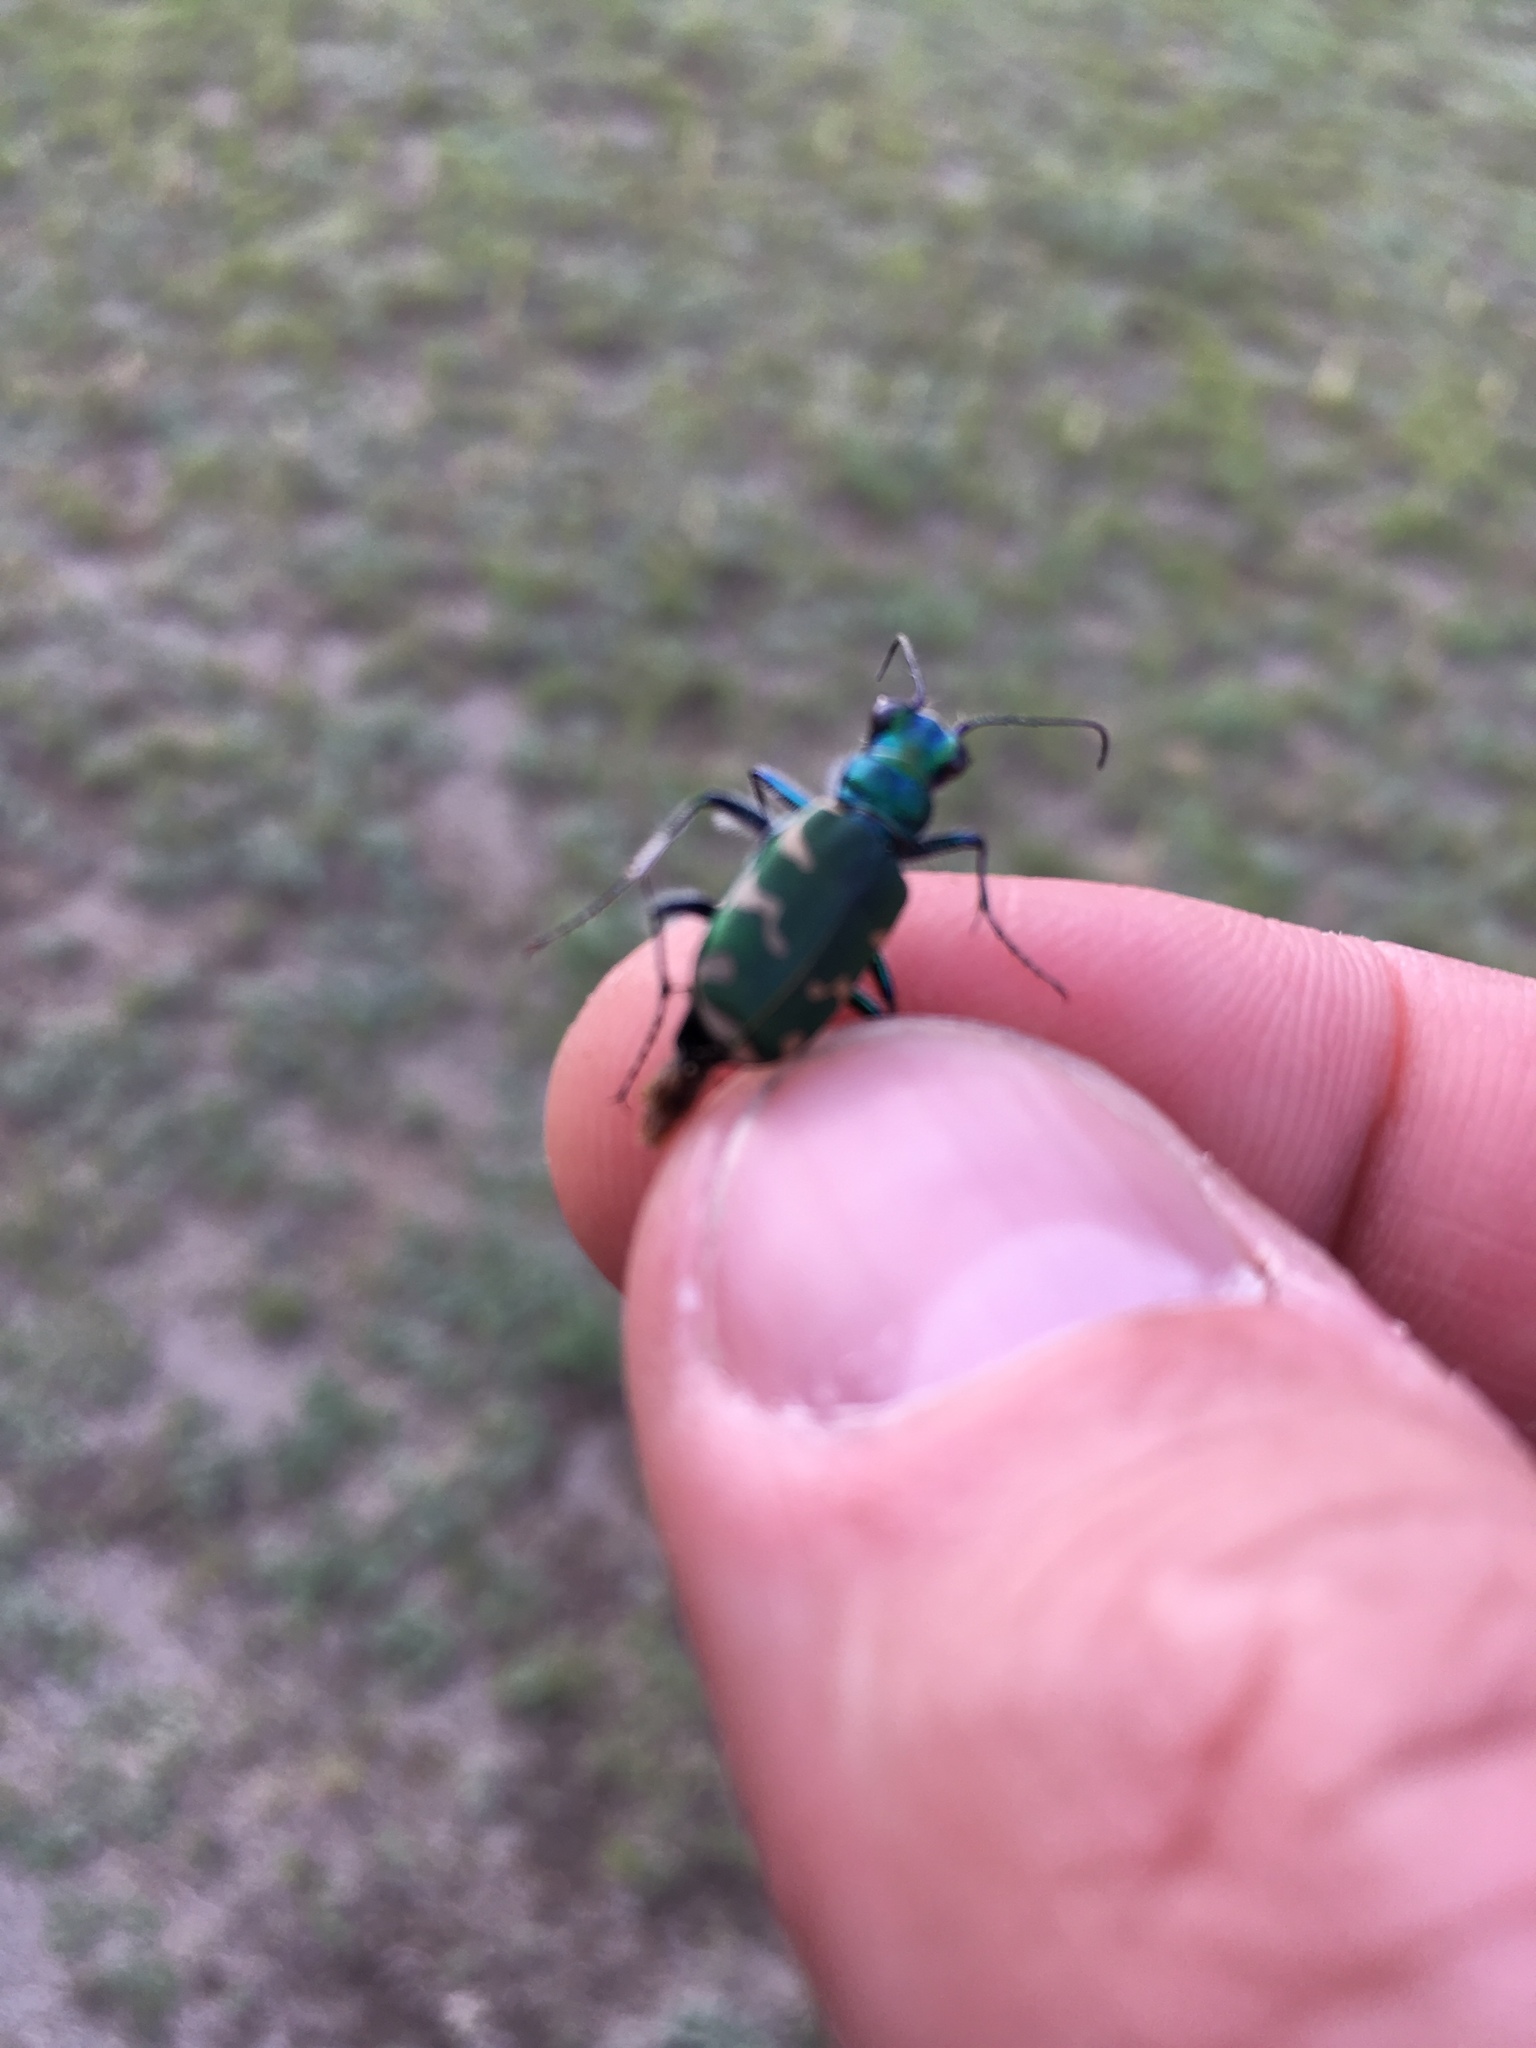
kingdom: Animalia
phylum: Arthropoda
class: Insecta
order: Coleoptera
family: Carabidae
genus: Cicindela
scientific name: Cicindela coerulea
